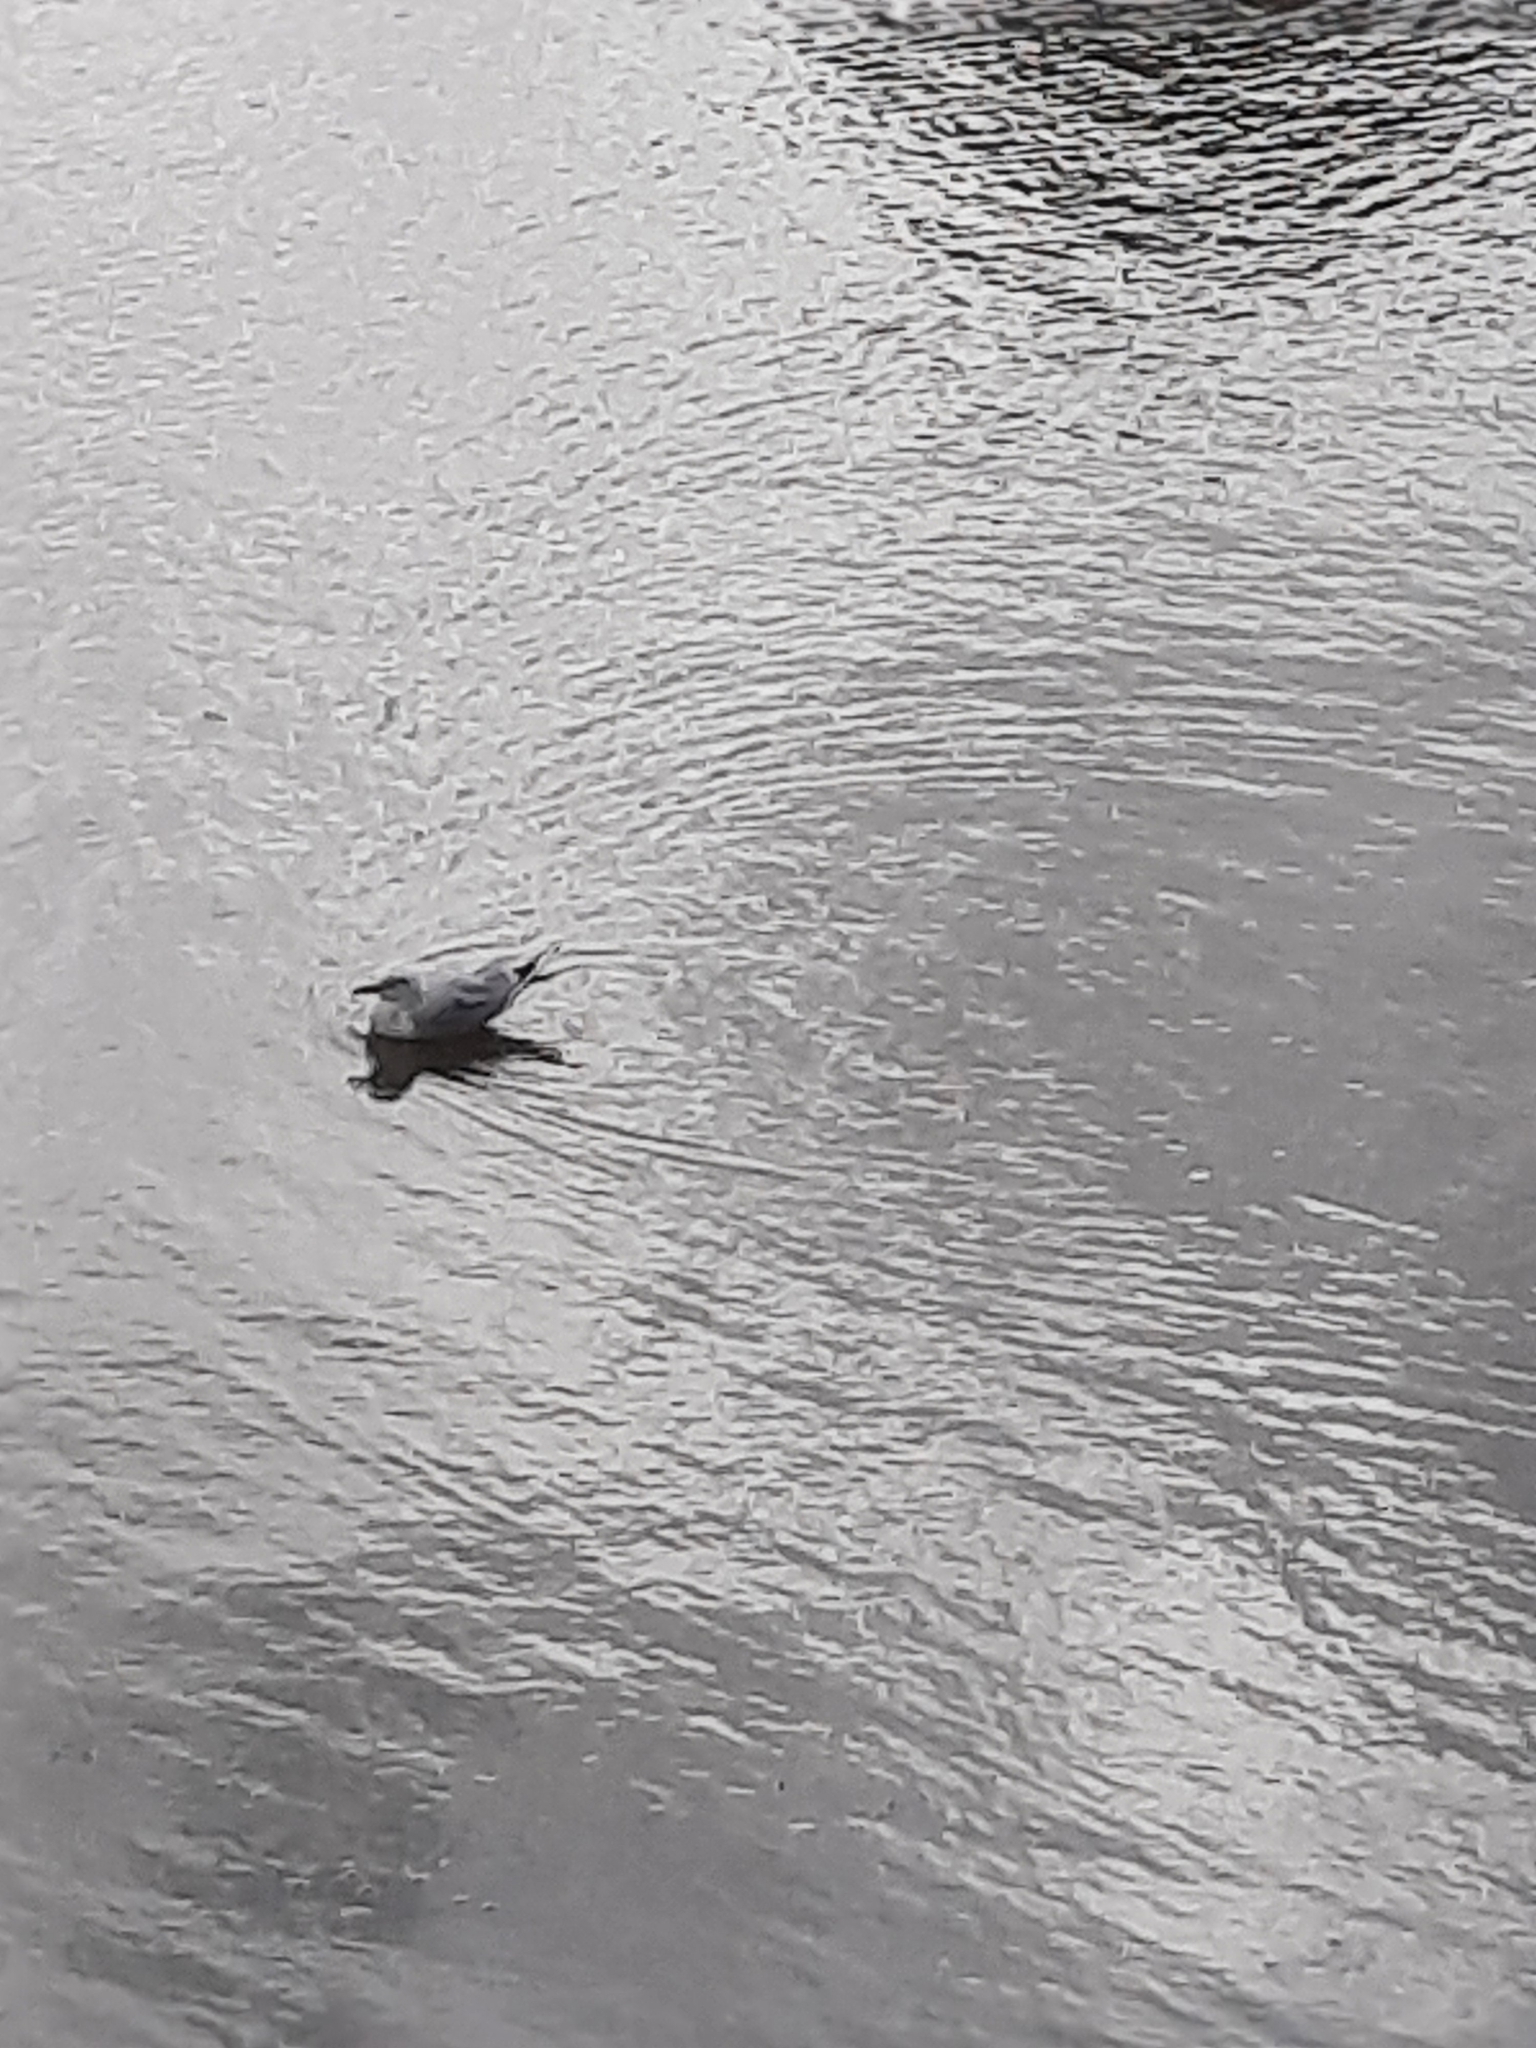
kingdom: Animalia
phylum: Chordata
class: Aves
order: Charadriiformes
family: Laridae
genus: Chroicocephalus
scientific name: Chroicocephalus ridibundus
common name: Black-headed gull
